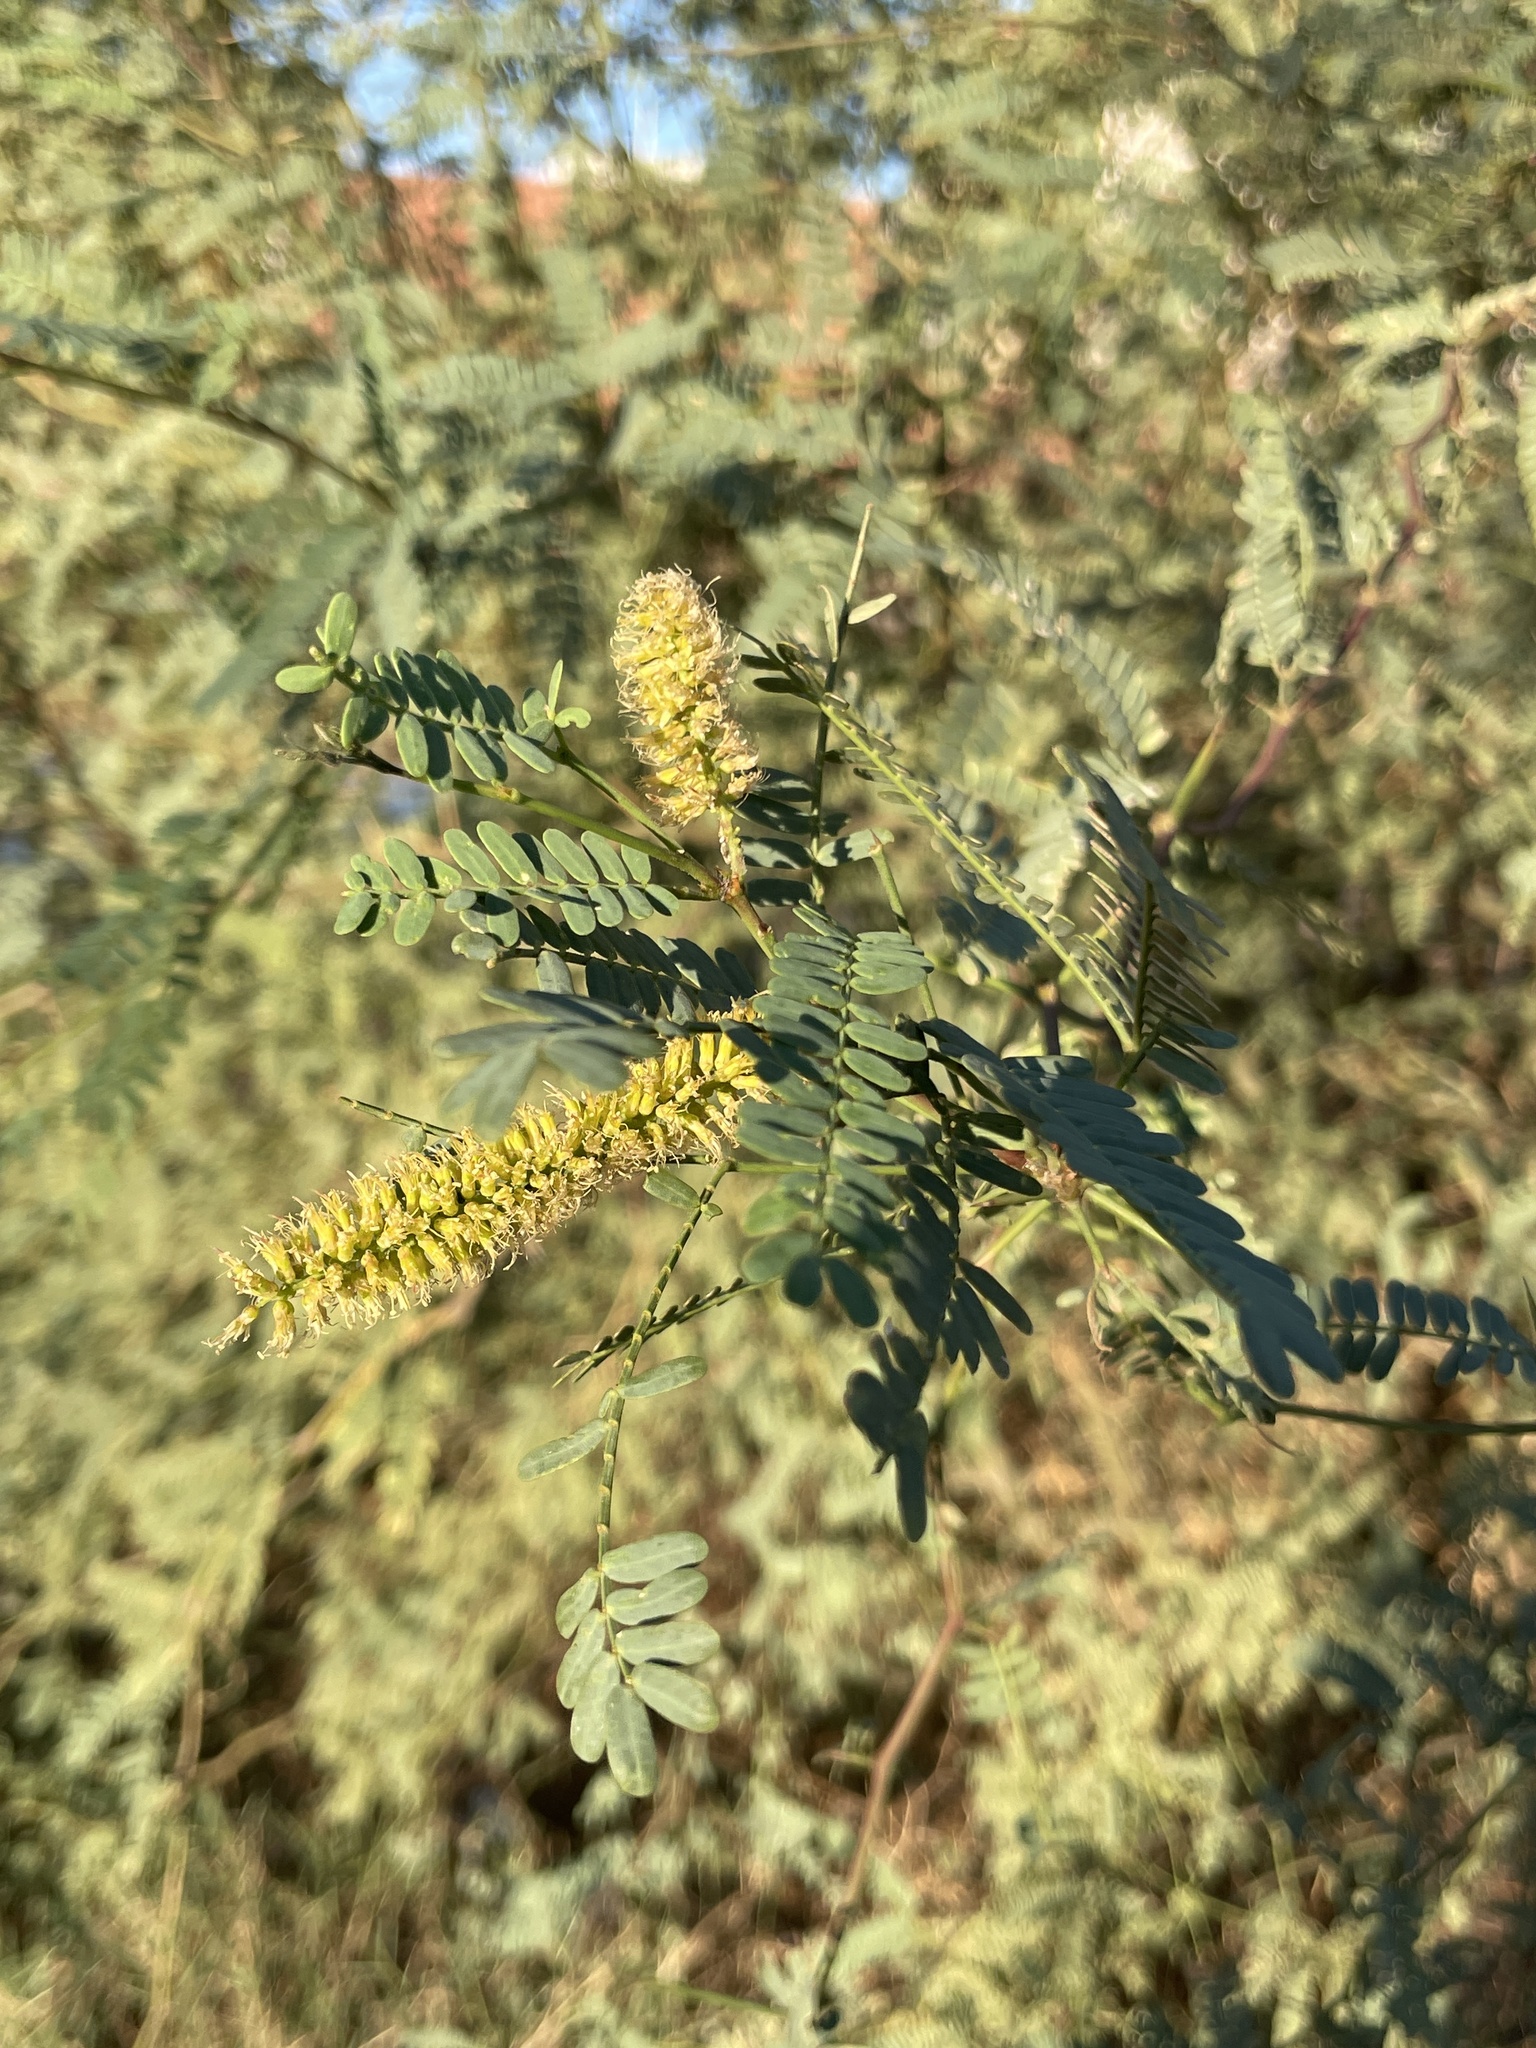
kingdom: Plantae
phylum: Tracheophyta
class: Magnoliopsida
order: Fabales
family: Fabaceae
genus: Prosopis
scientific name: Prosopis articulata
